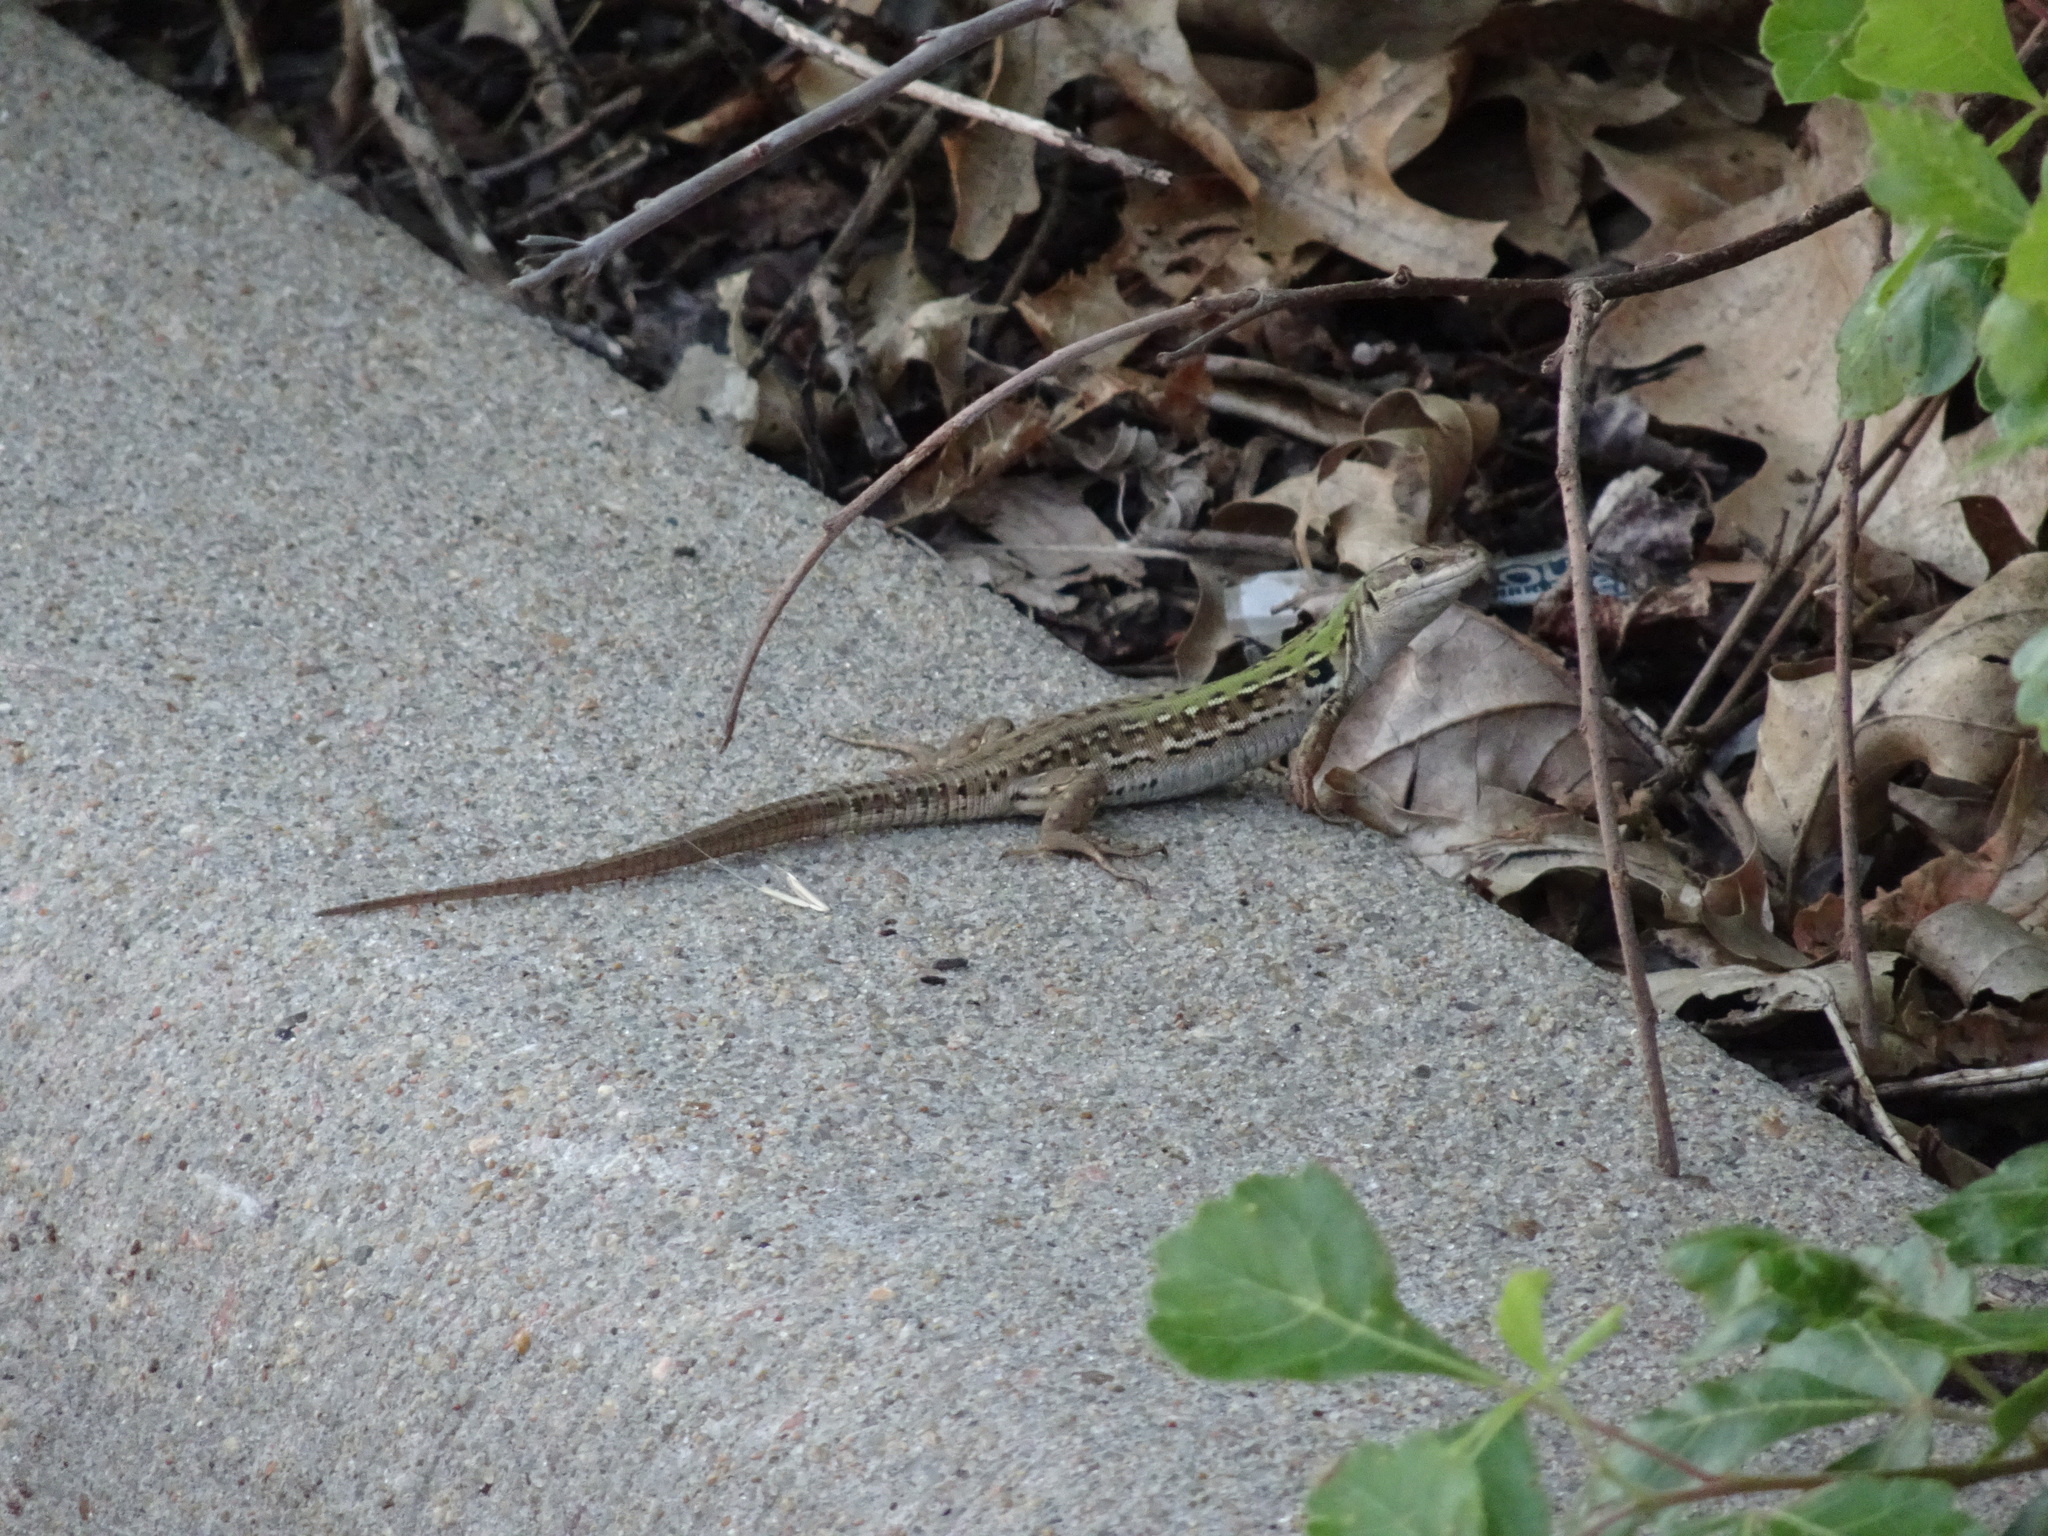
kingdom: Animalia
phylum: Chordata
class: Squamata
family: Lacertidae
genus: Podarcis
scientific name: Podarcis siculus
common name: Italian wall lizard
